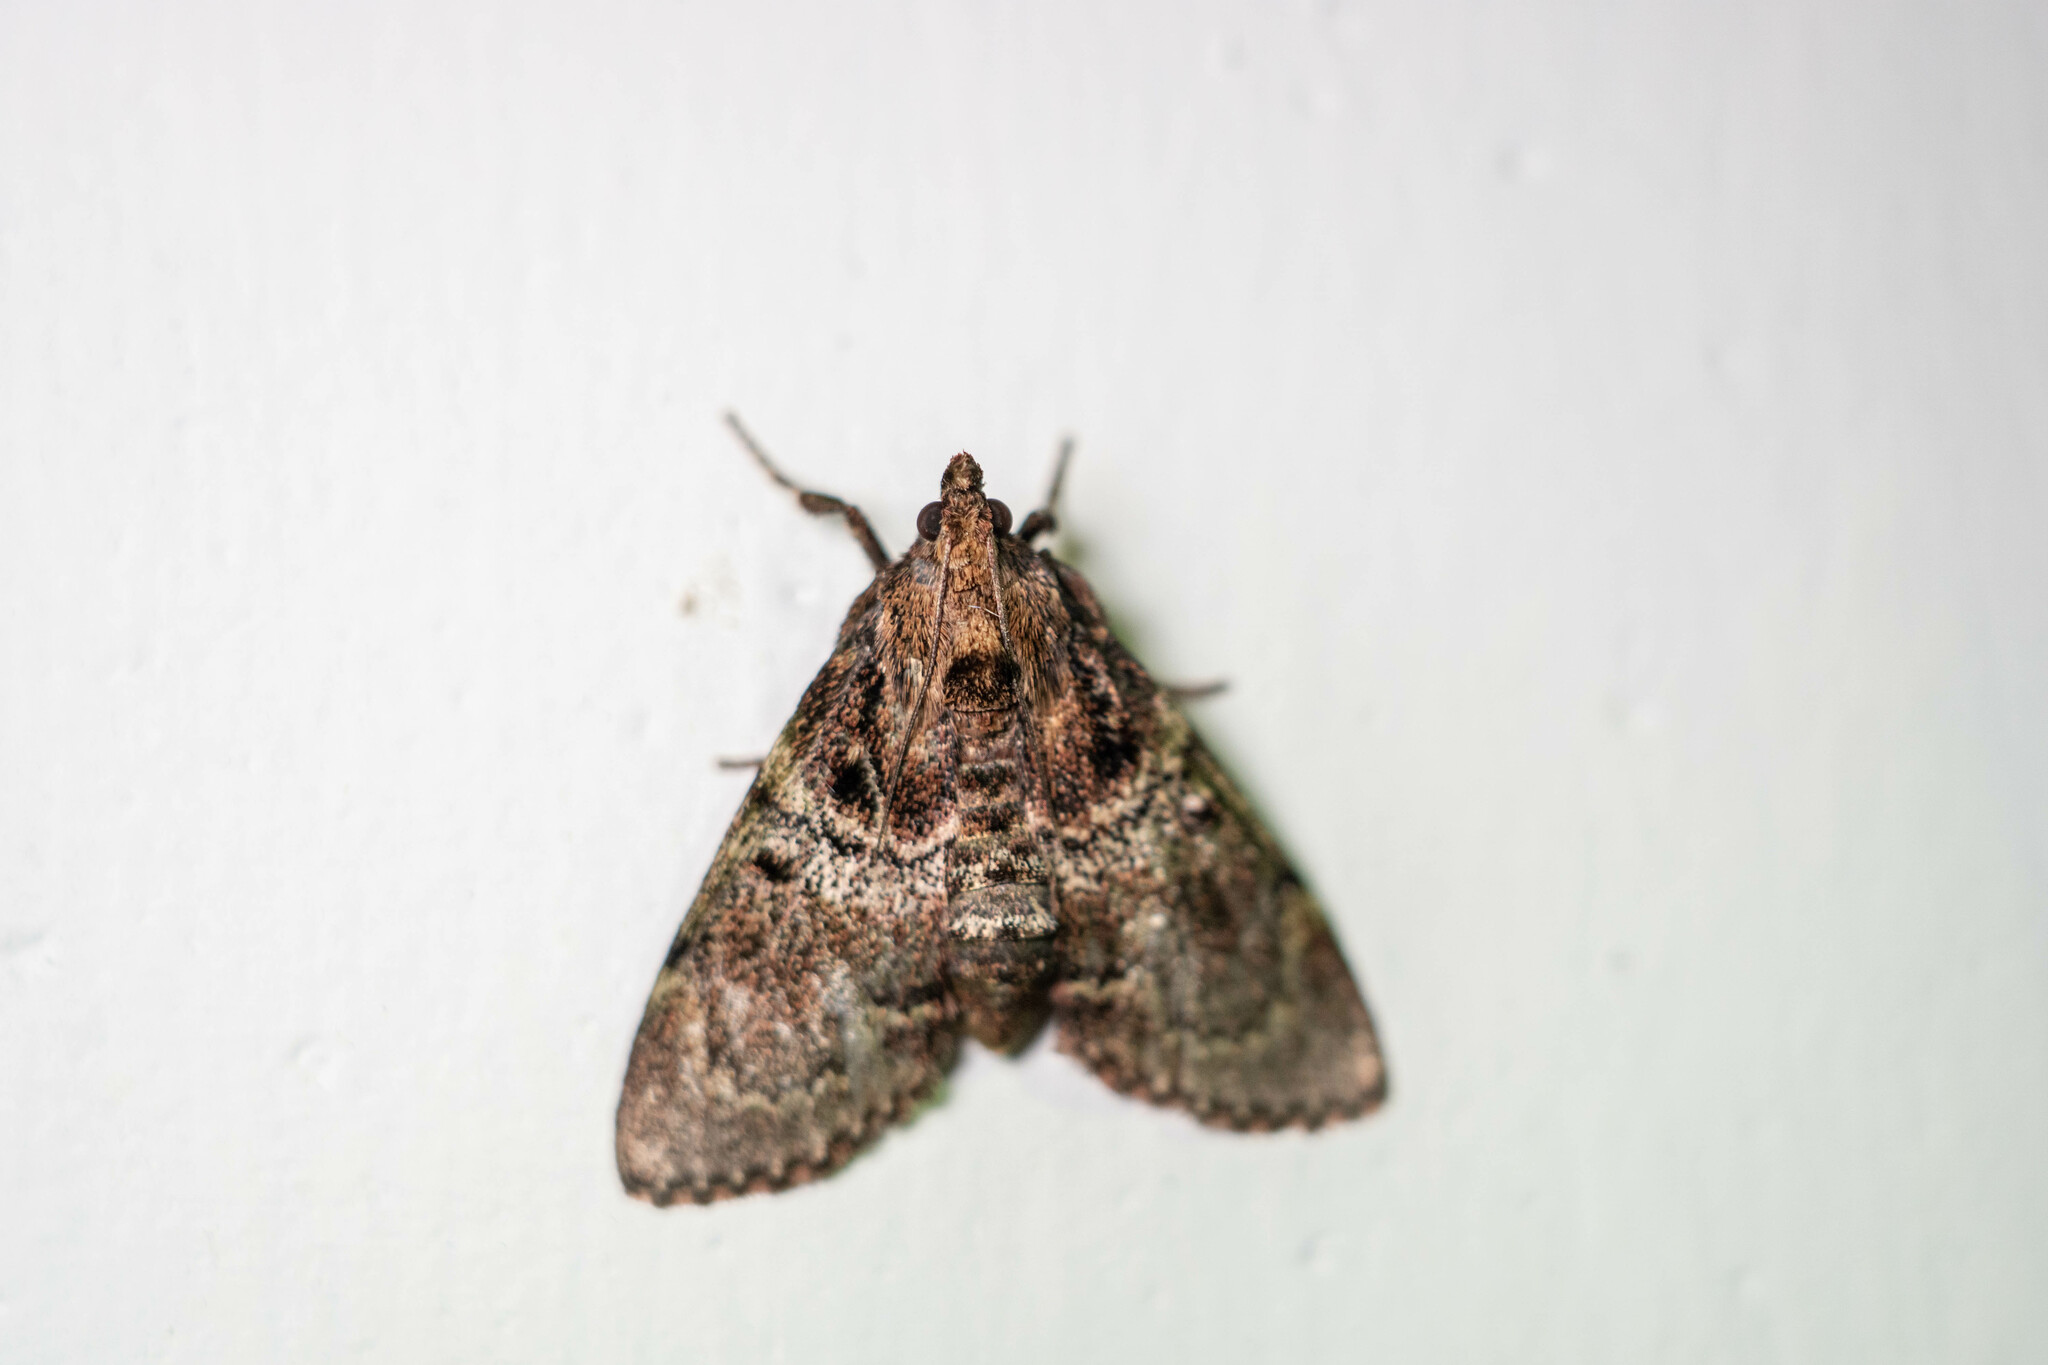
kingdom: Animalia
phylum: Arthropoda
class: Insecta
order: Lepidoptera
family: Pyralidae
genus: Locastra
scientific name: Locastra muscosalis
